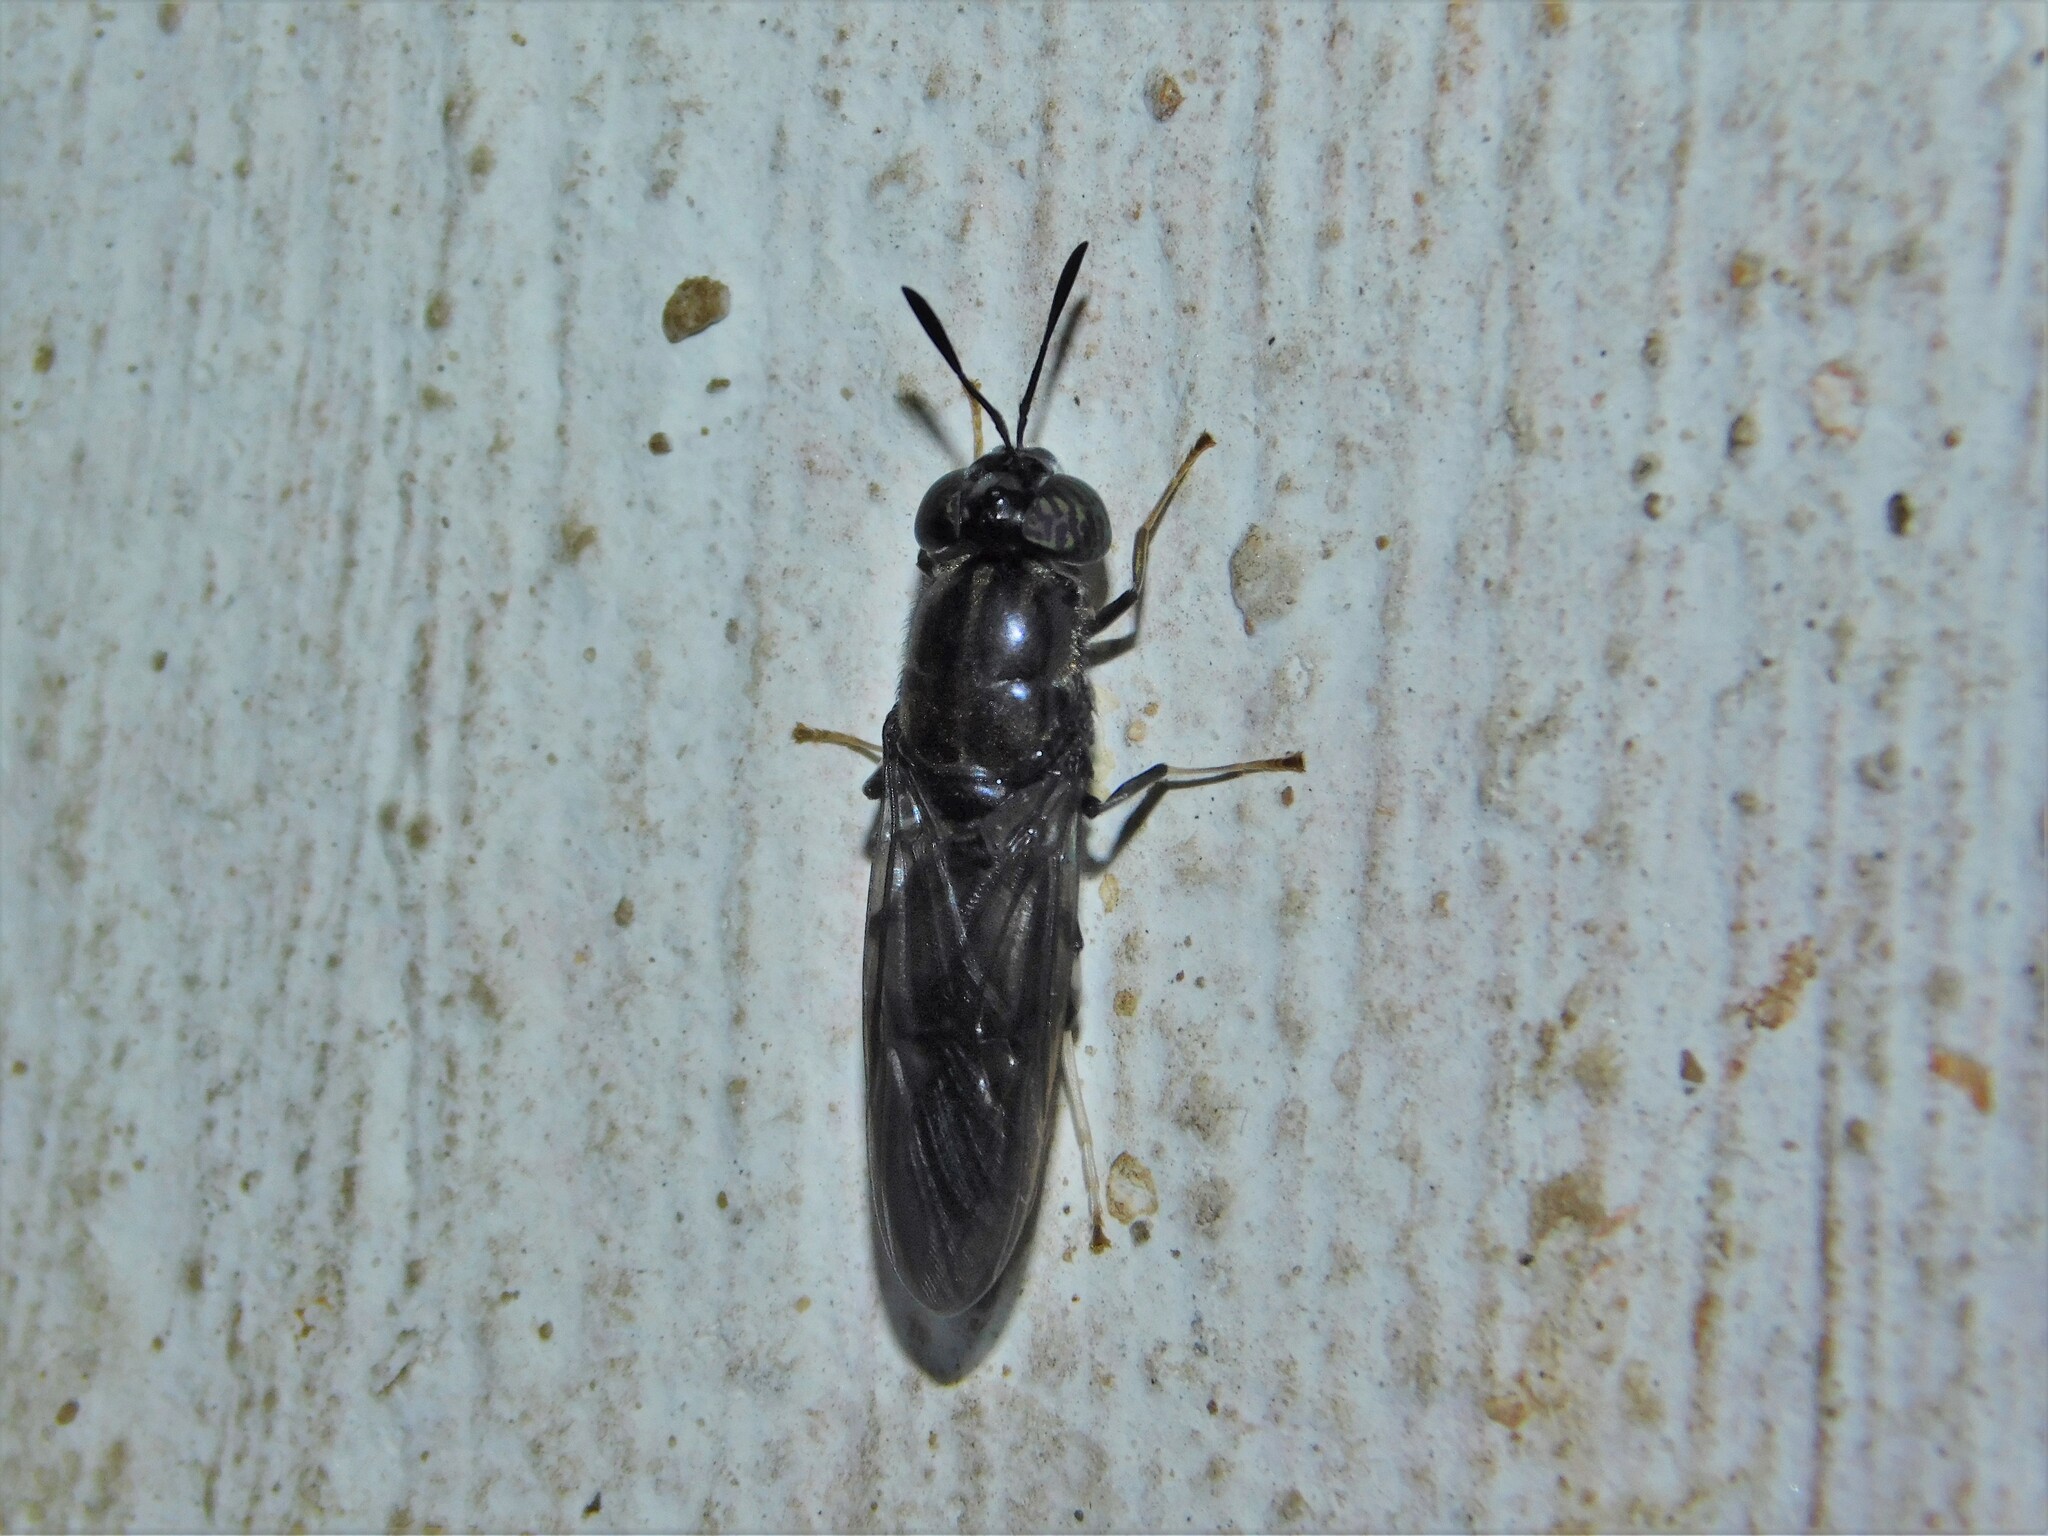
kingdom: Animalia
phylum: Arthropoda
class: Insecta
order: Diptera
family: Stratiomyidae
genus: Hermetia
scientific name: Hermetia illucens
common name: Black soldier fly
